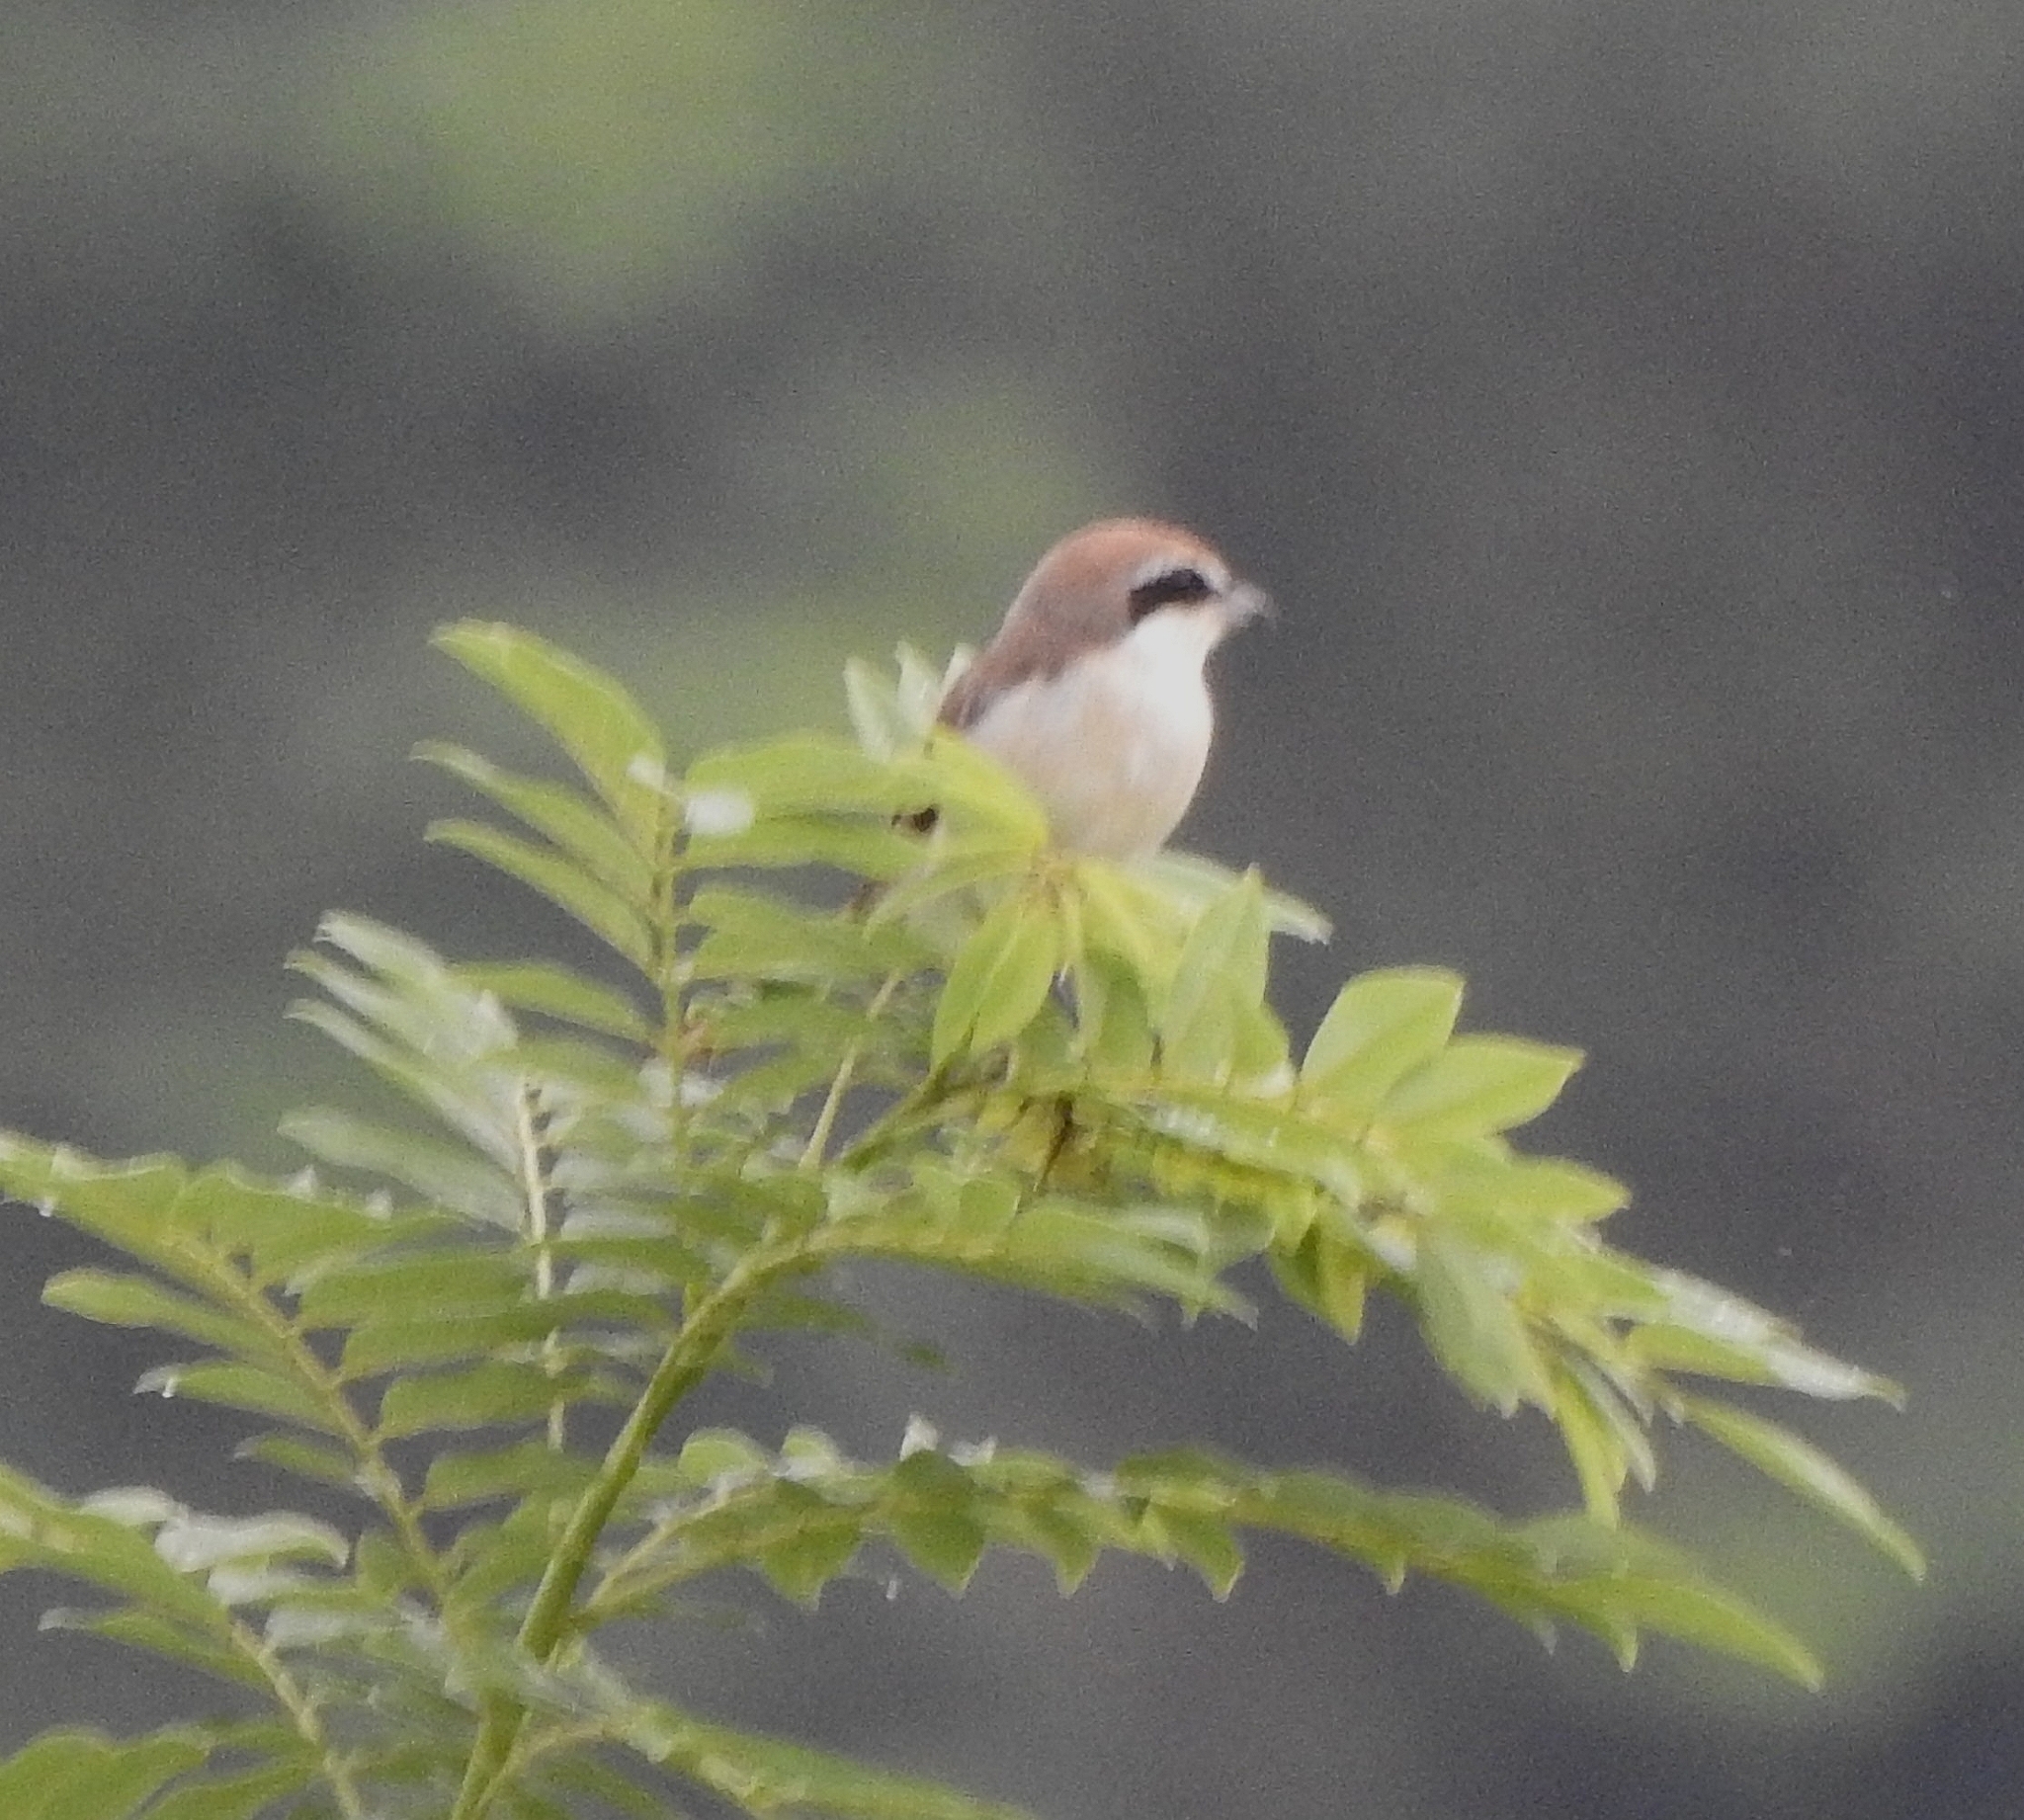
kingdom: Animalia
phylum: Chordata
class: Aves
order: Passeriformes
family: Laniidae
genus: Lanius
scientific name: Lanius cristatus
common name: Brown shrike
